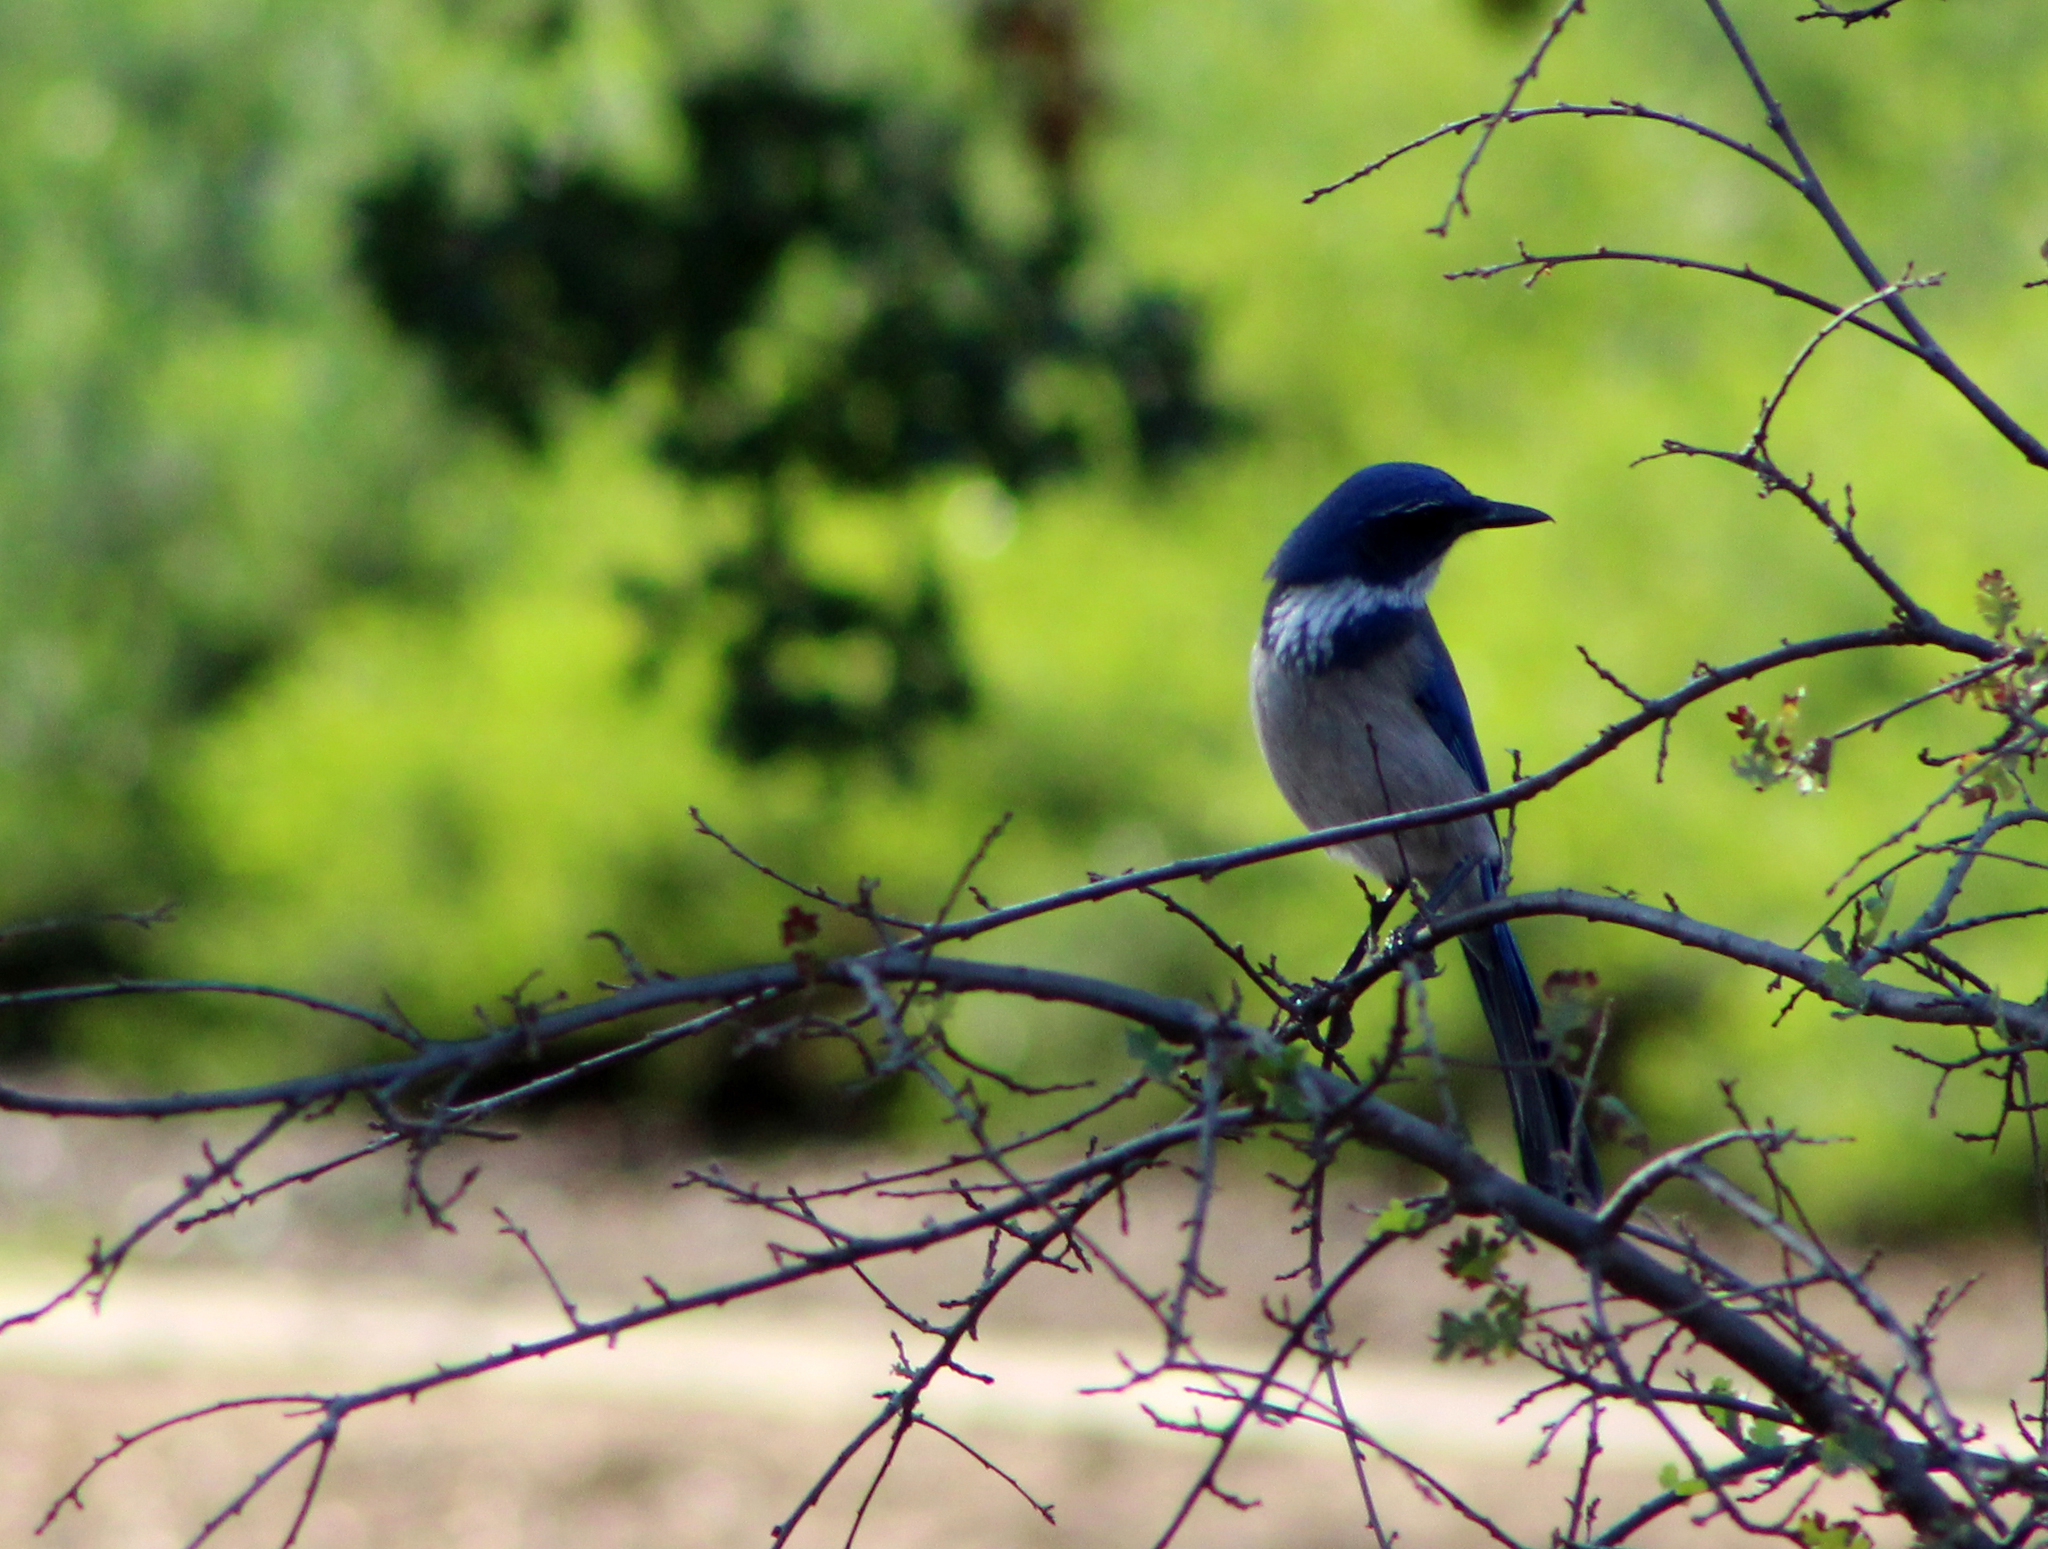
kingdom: Animalia
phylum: Chordata
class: Aves
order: Passeriformes
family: Corvidae
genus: Aphelocoma
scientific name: Aphelocoma californica
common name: California scrub-jay
